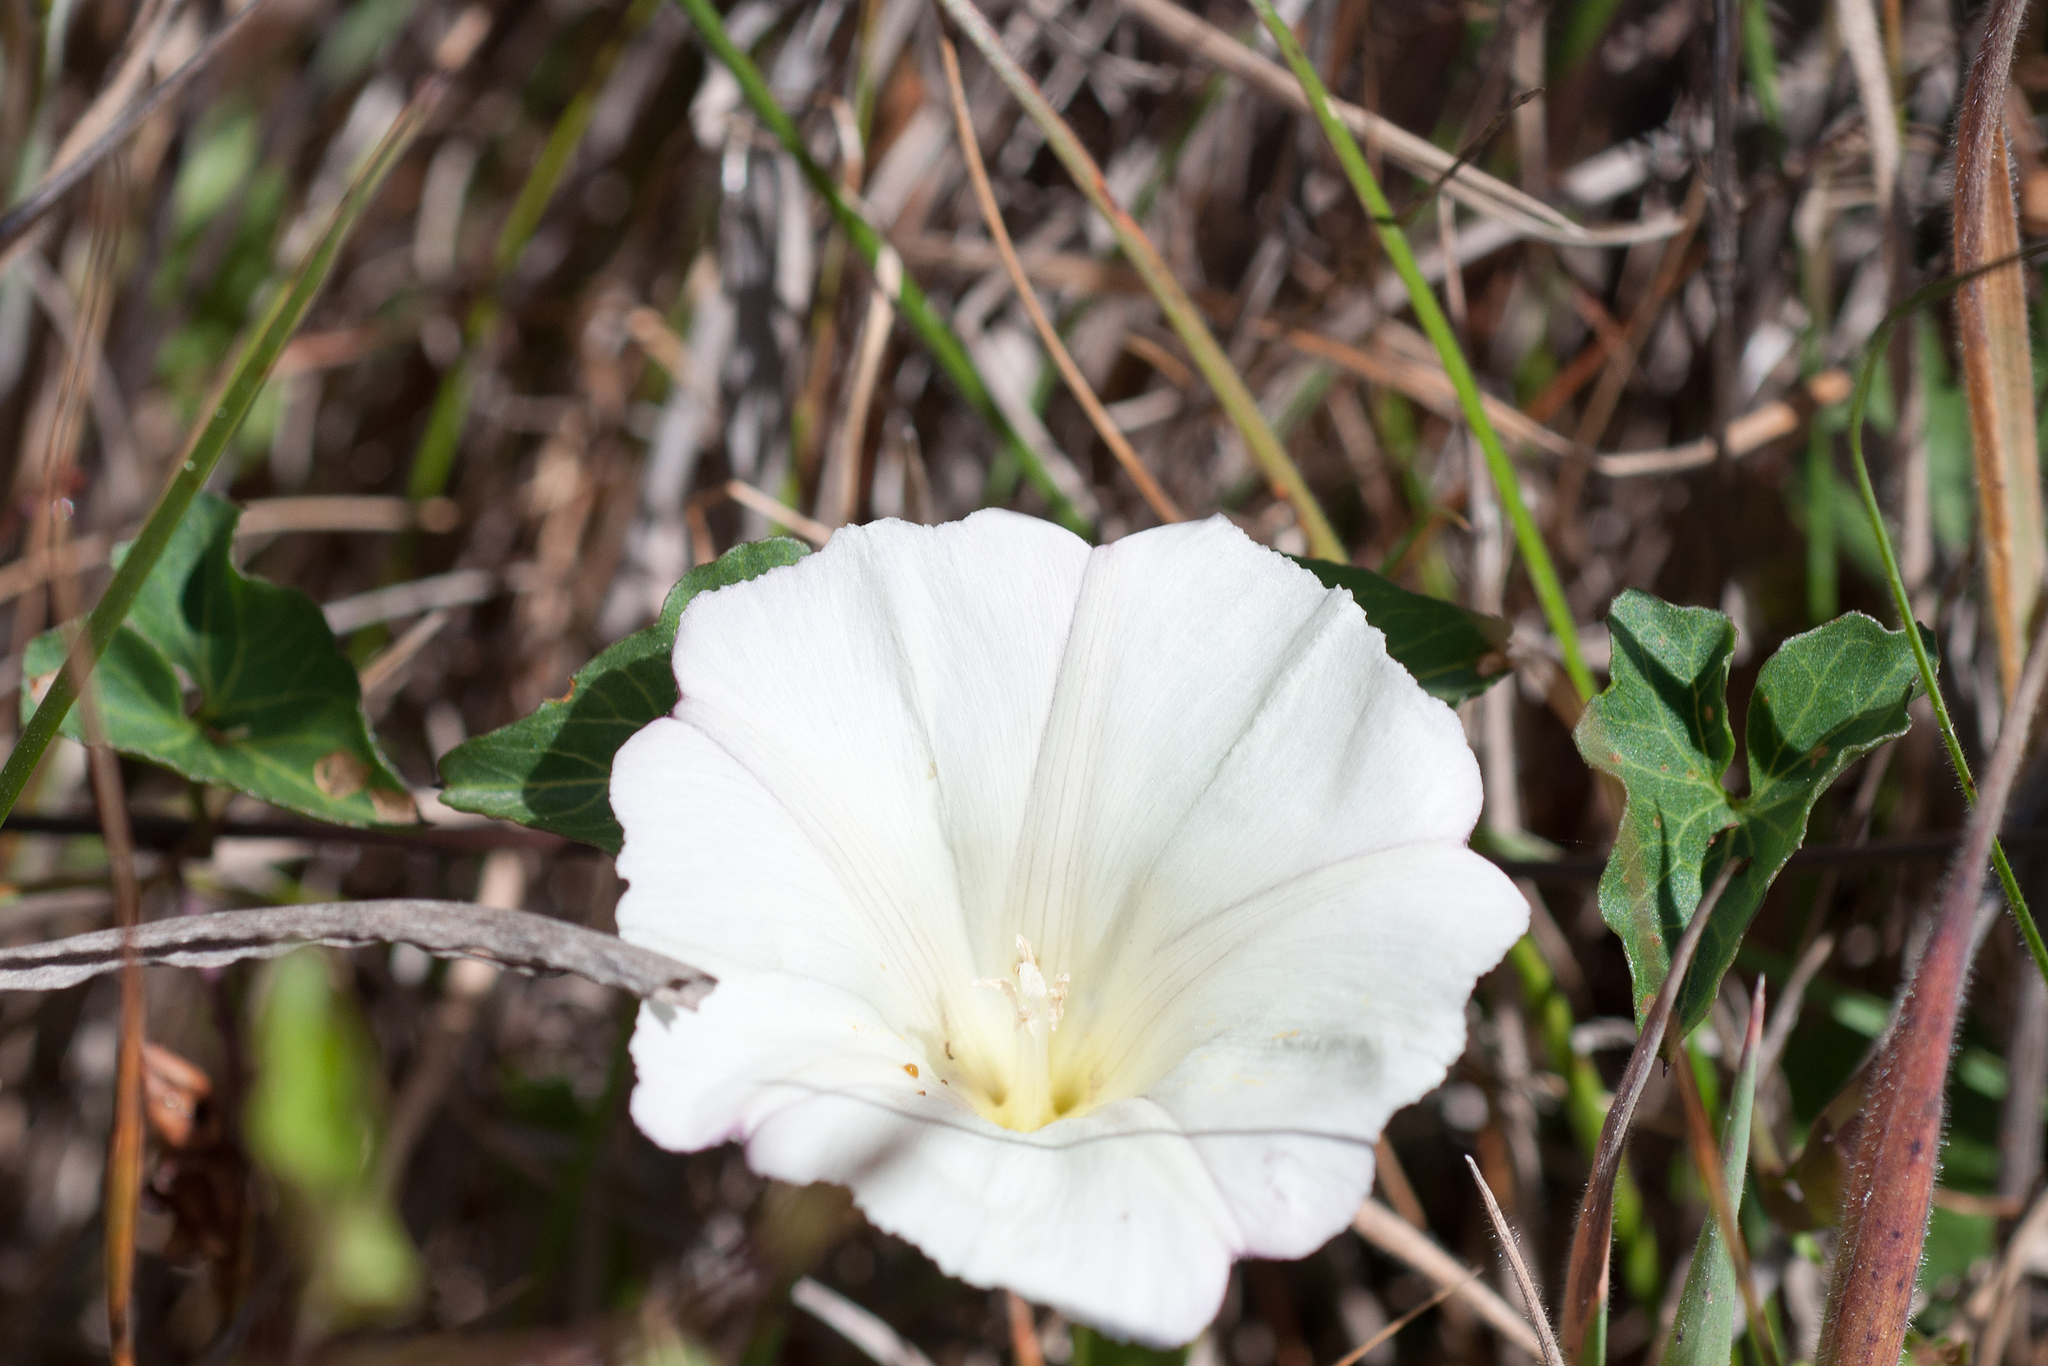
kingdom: Plantae
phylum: Tracheophyta
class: Magnoliopsida
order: Solanales
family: Convolvulaceae
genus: Calystegia
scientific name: Calystegia purpurata
